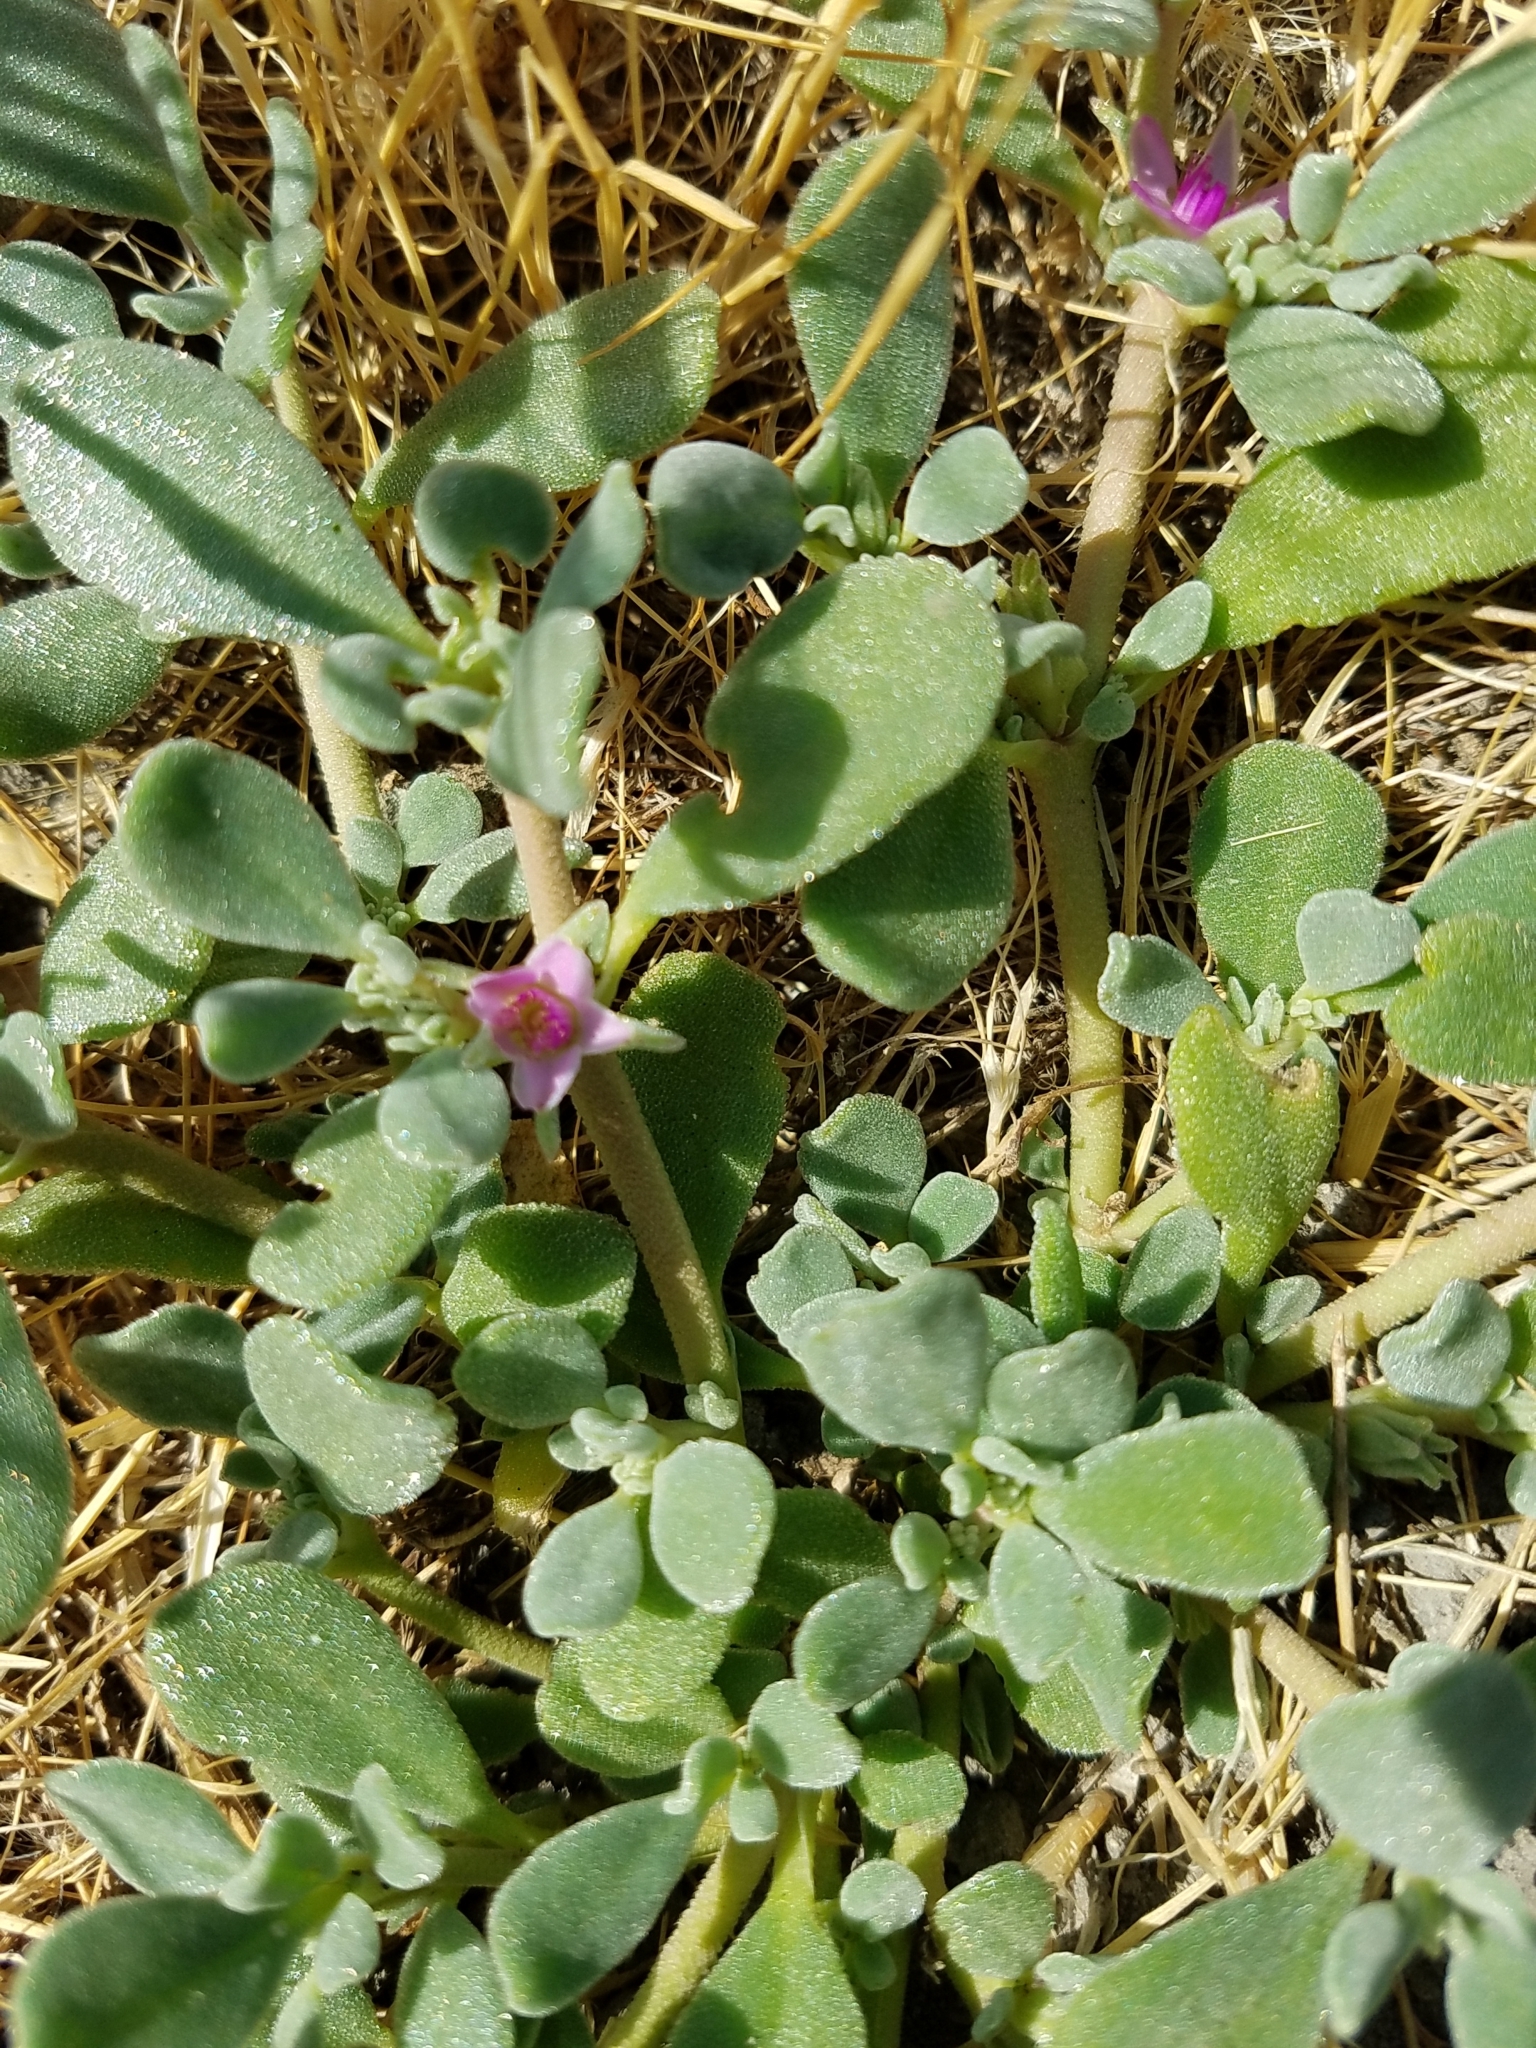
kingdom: Plantae
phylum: Tracheophyta
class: Magnoliopsida
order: Caryophyllales
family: Aizoaceae
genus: Sesuvium
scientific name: Sesuvium revolutifolium
